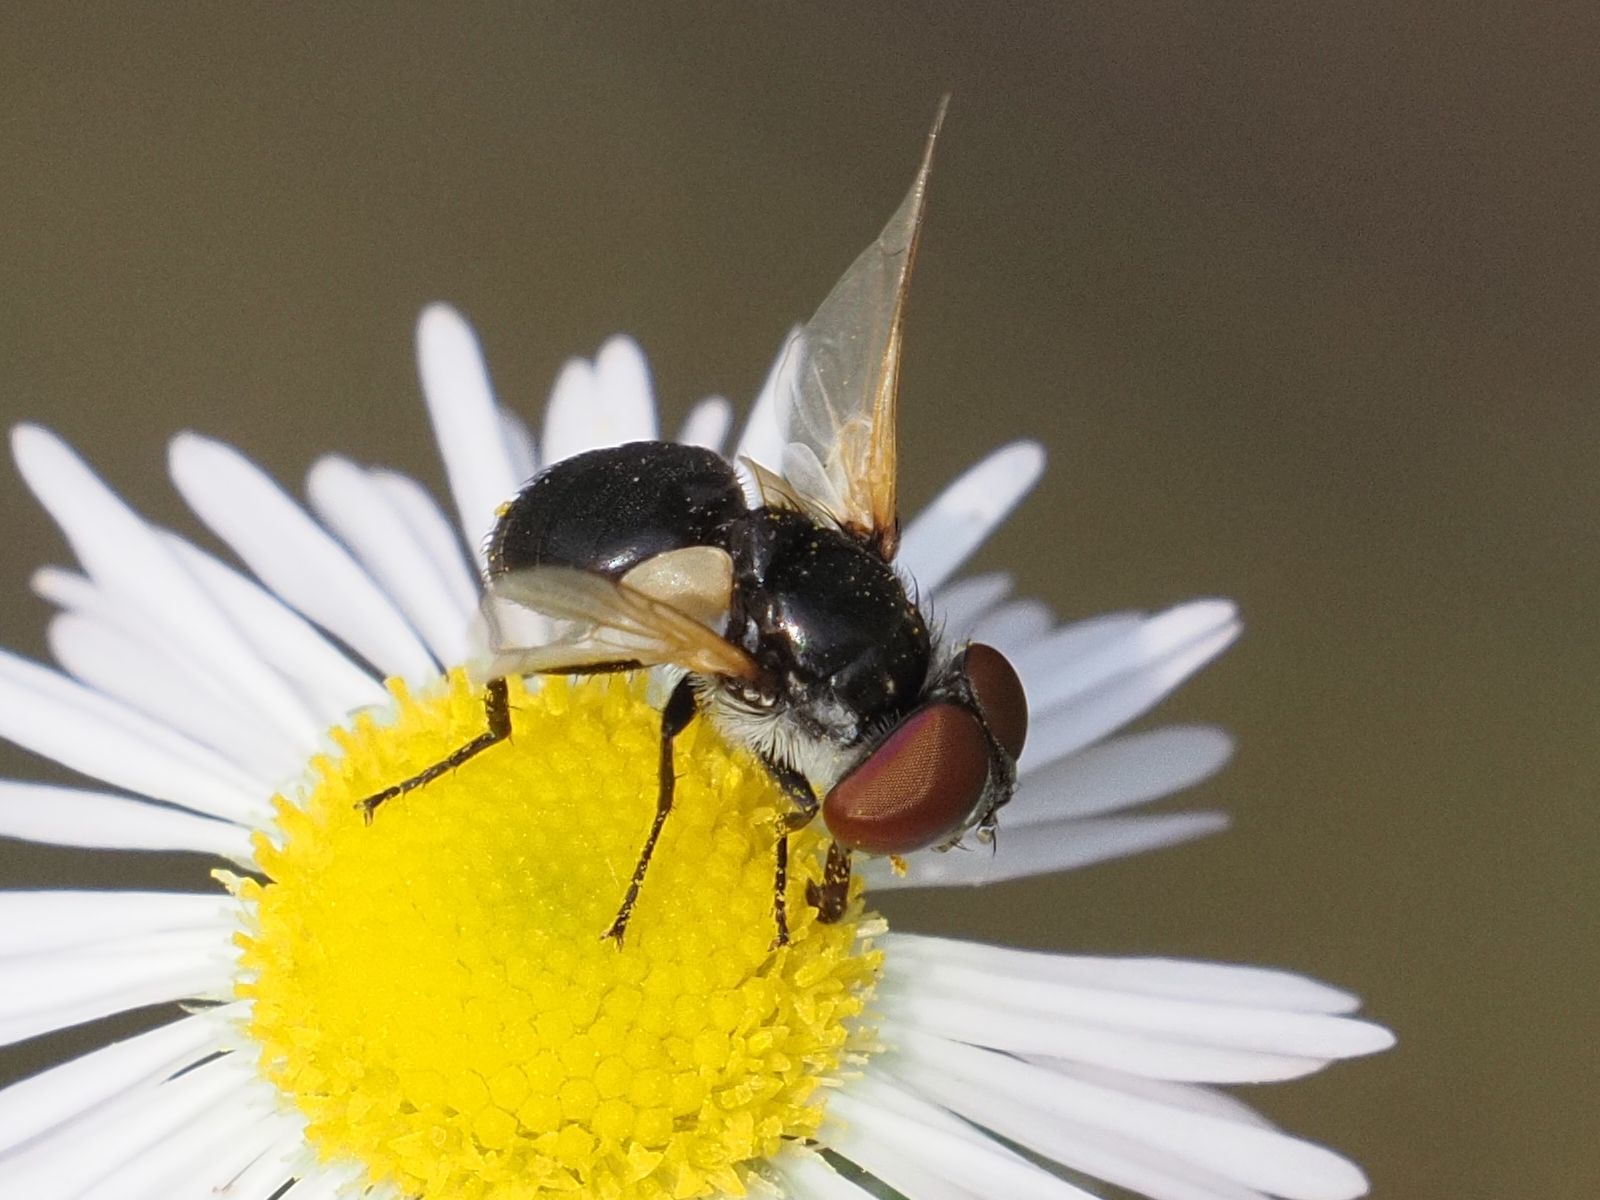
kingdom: Animalia
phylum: Arthropoda
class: Insecta
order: Diptera
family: Tachinidae
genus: Elomya
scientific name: Elomya lateralis
